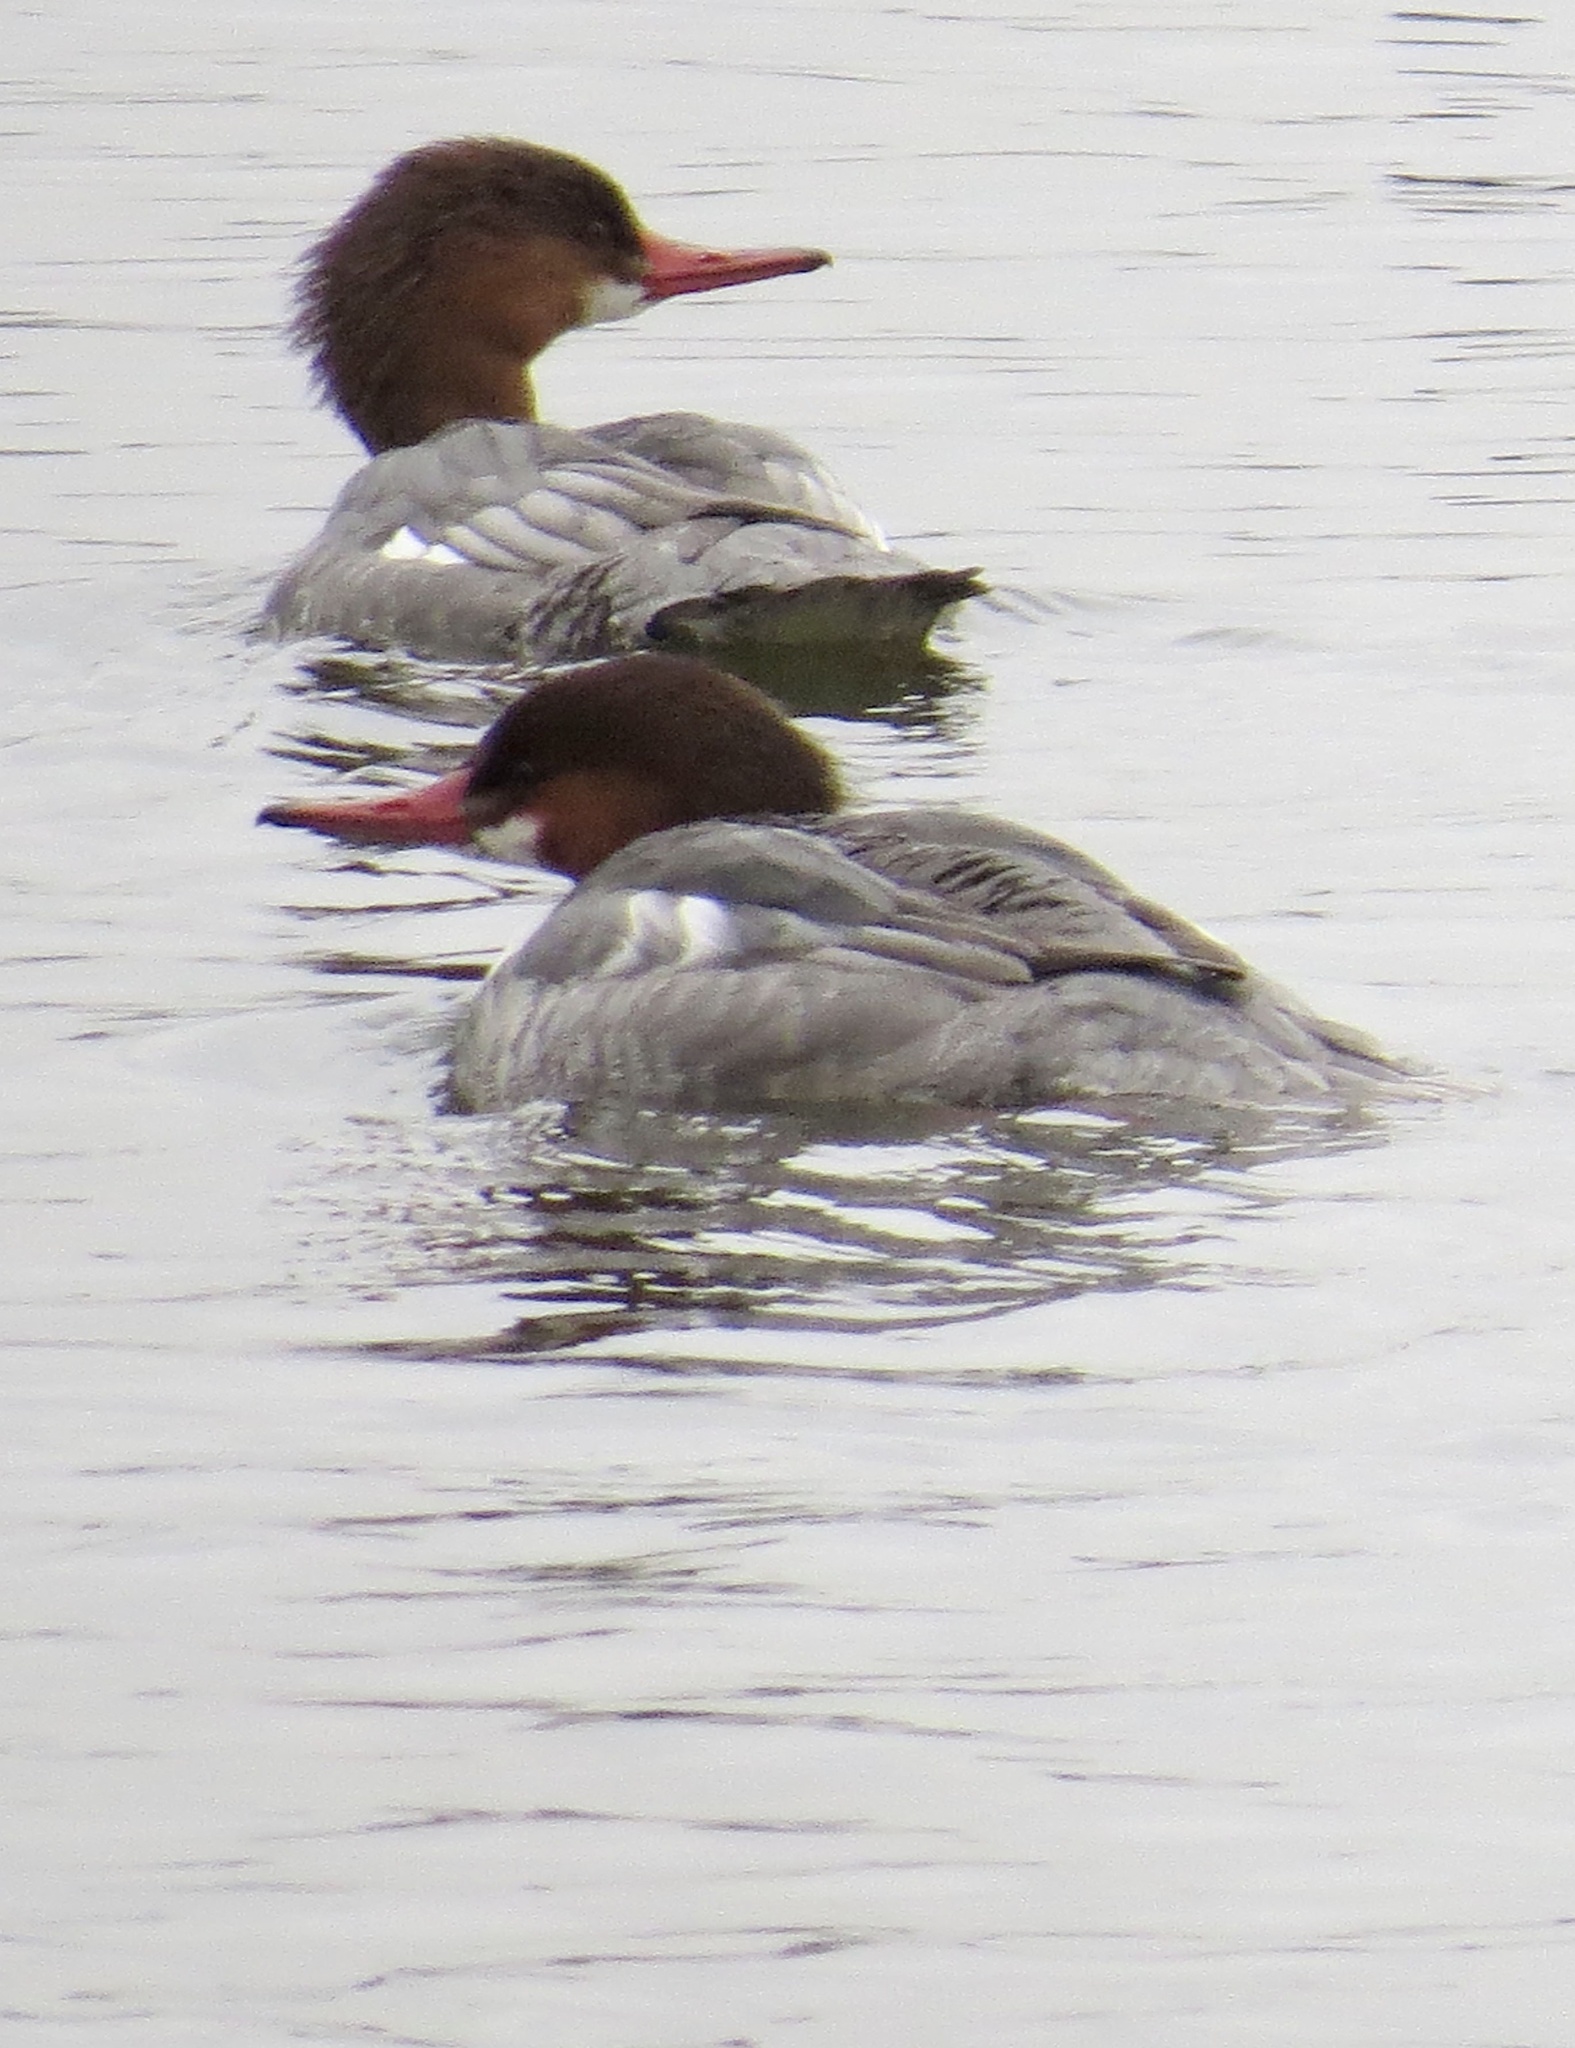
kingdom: Animalia
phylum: Chordata
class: Aves
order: Anseriformes
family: Anatidae
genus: Mergus
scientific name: Mergus merganser
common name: Common merganser
